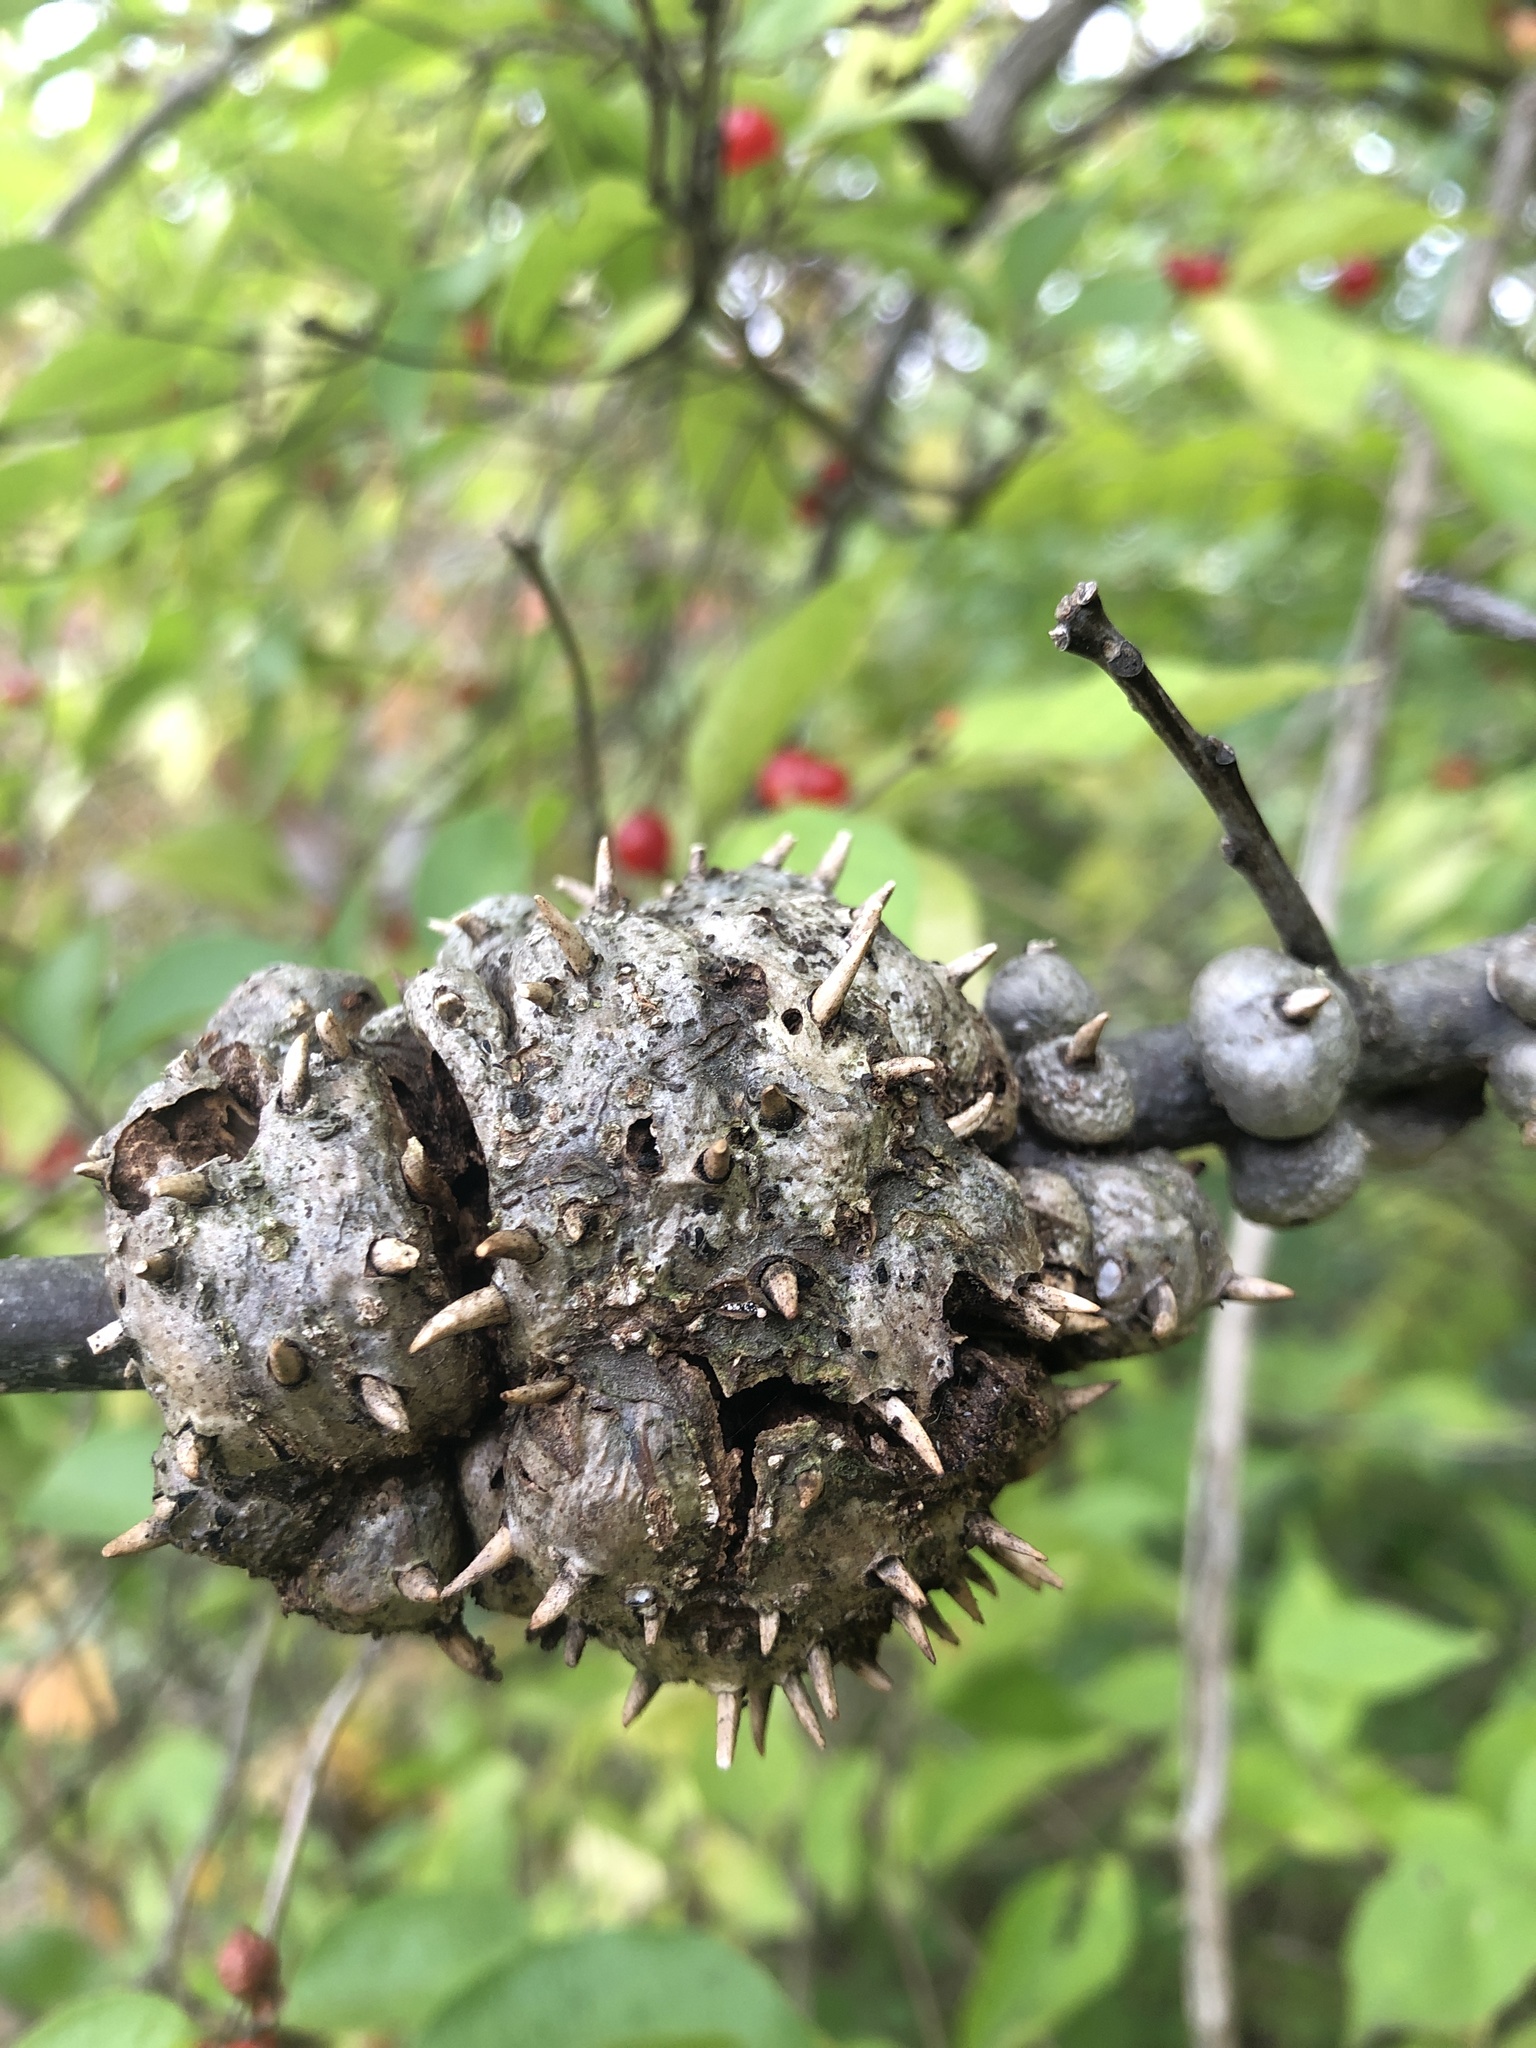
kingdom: Animalia
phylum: Arthropoda
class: Insecta
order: Hymenoptera
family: Cynipidae
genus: Callirhytis
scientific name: Callirhytis
